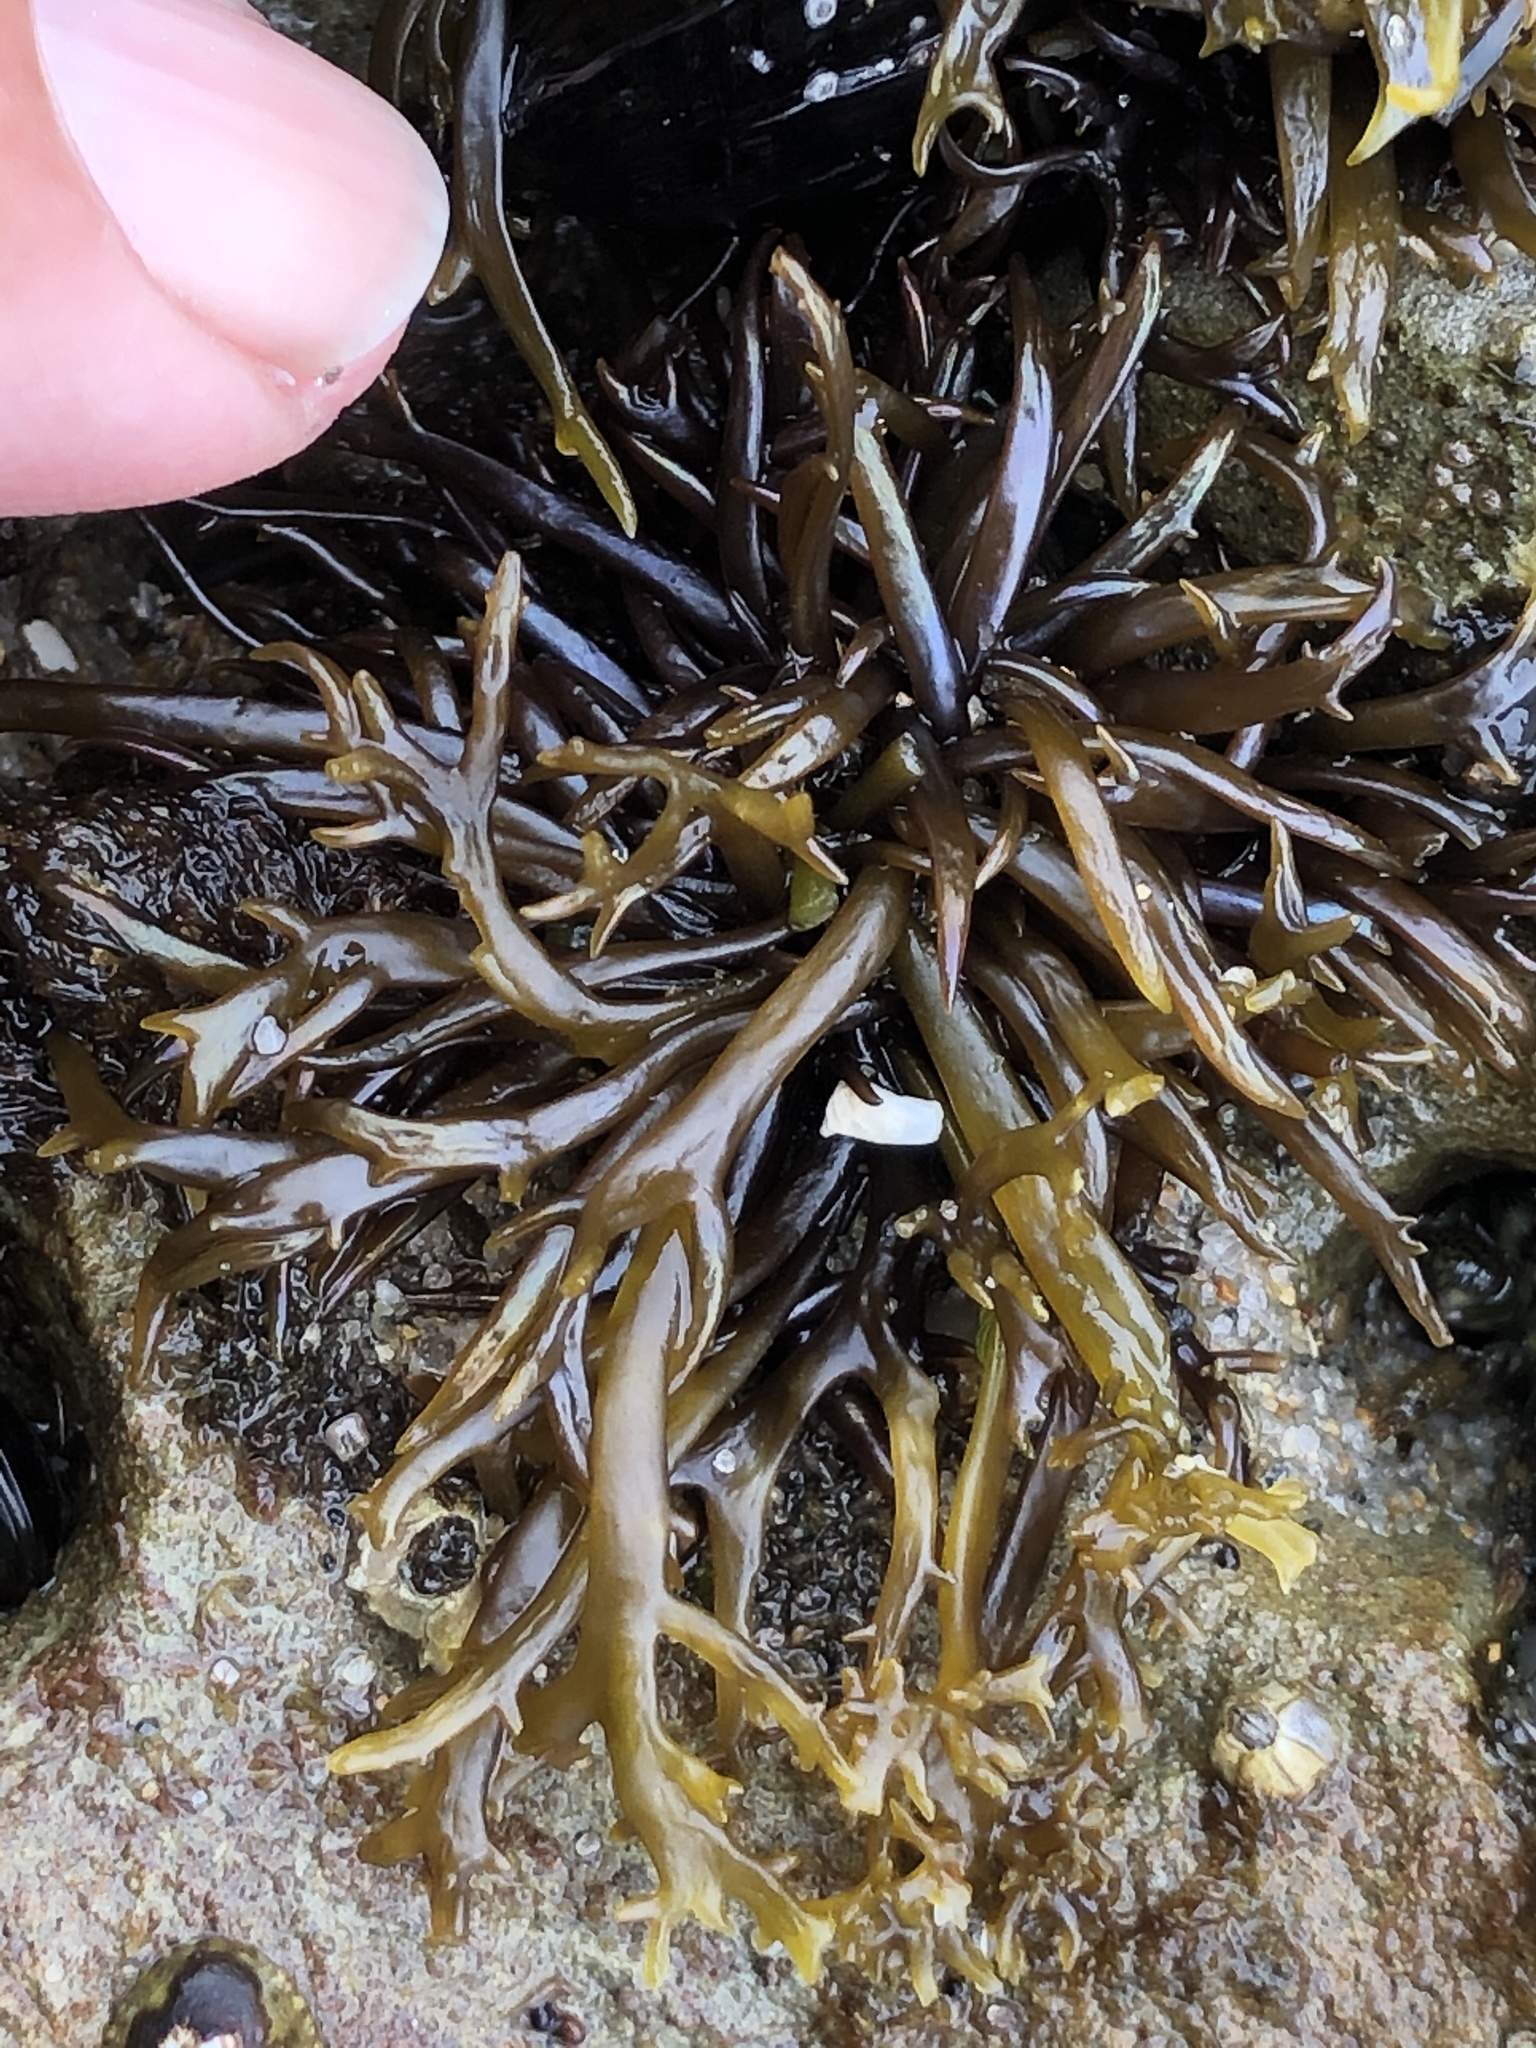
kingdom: Plantae
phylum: Rhodophyta
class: Florideophyceae
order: Gigartinales
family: Gigartinaceae
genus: Chondracanthus
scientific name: Chondracanthus canaliculatus
